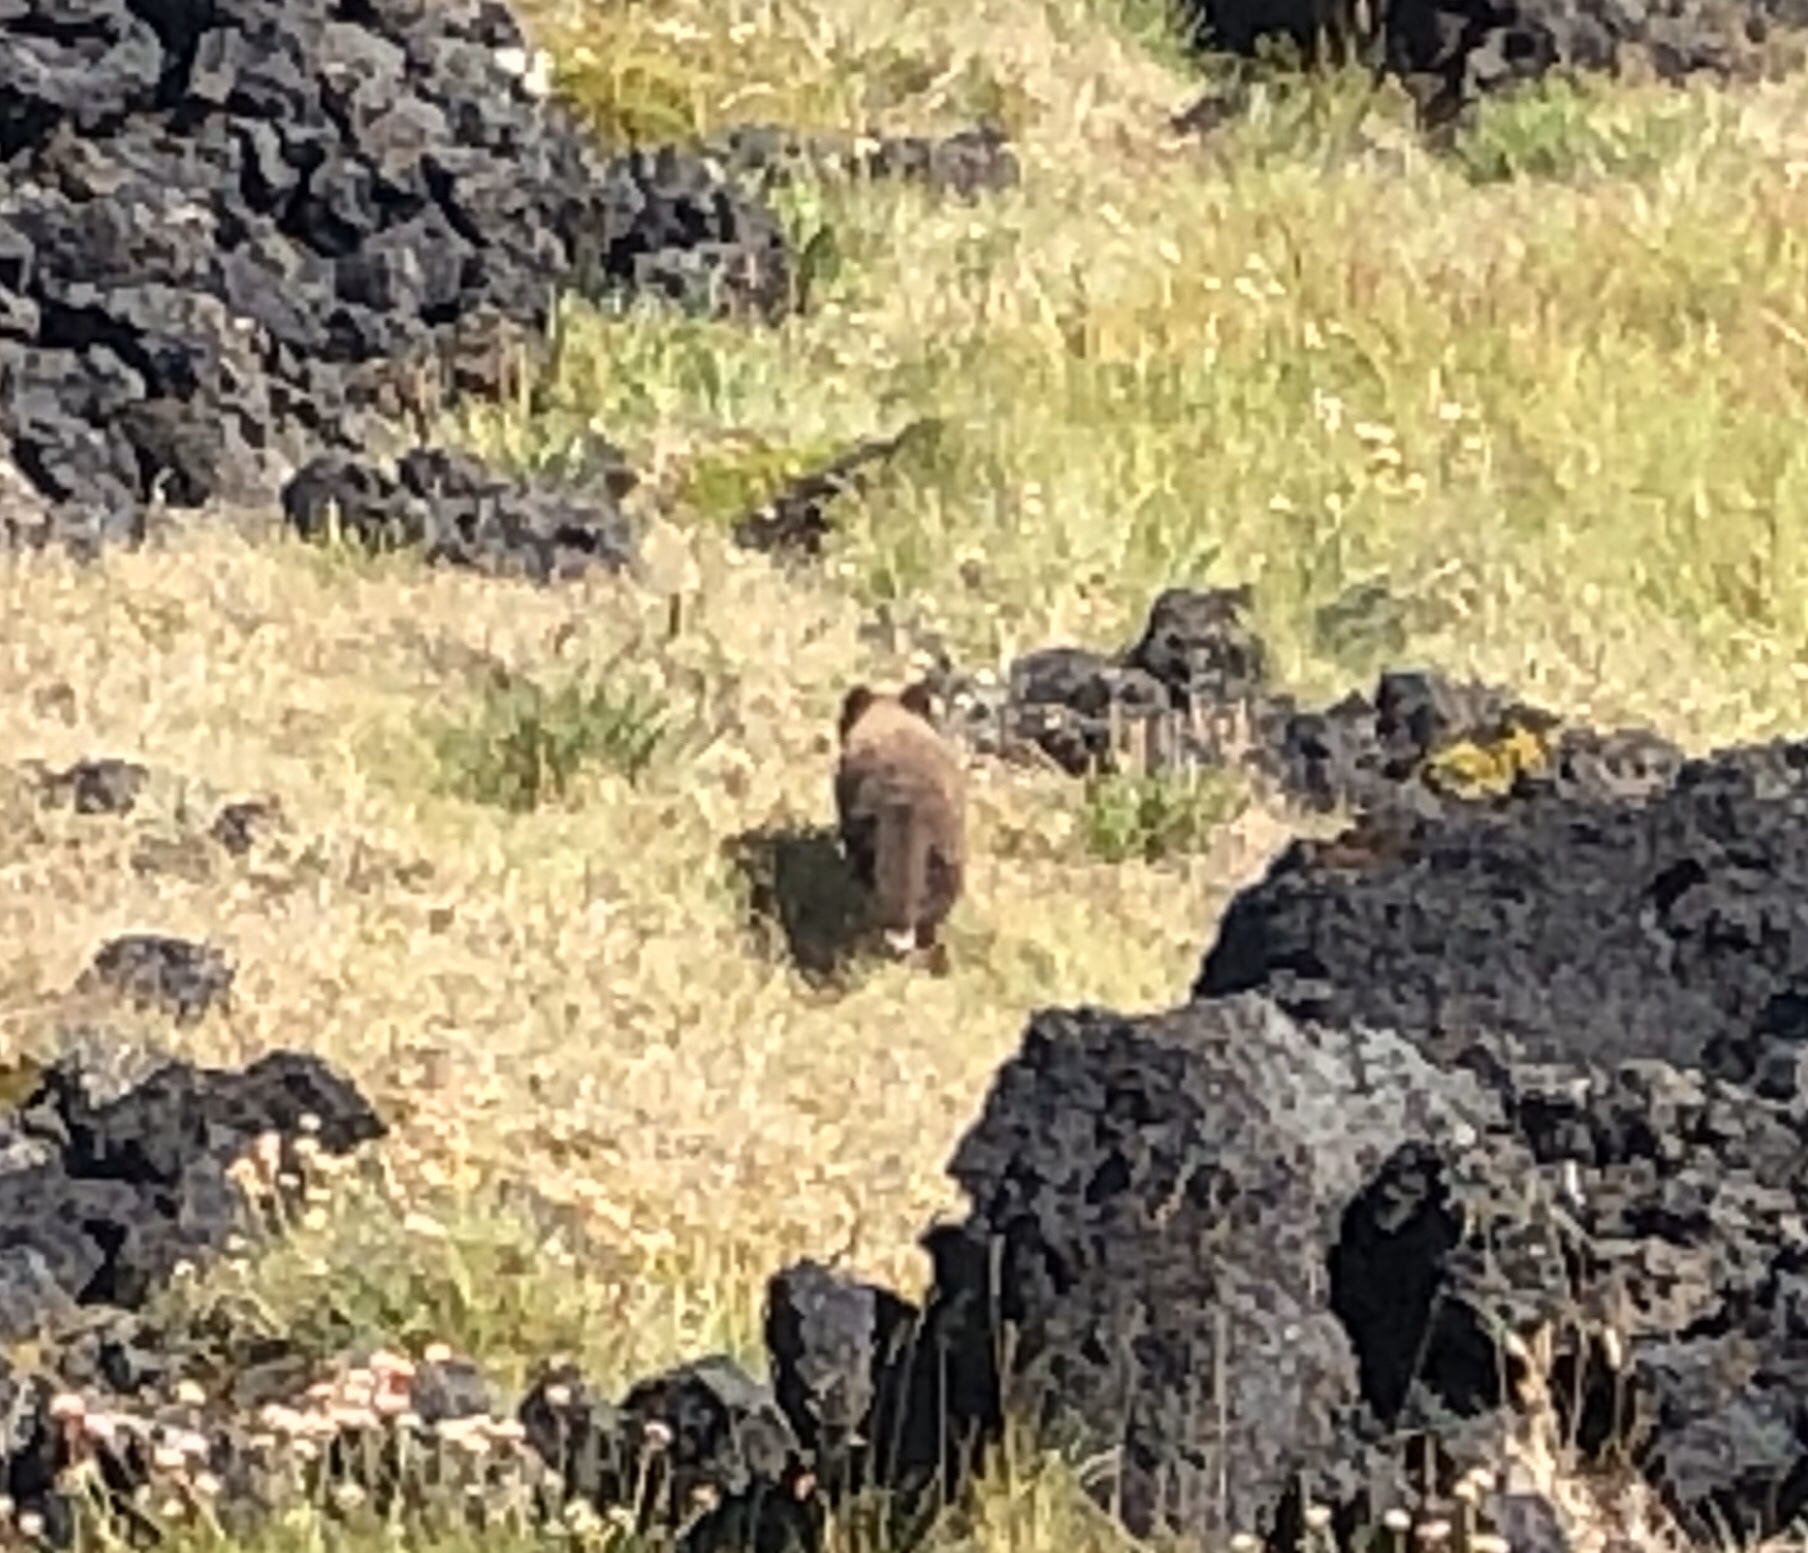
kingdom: Animalia
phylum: Chordata
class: Mammalia
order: Carnivora
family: Canidae
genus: Vulpes
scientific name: Vulpes lagopus
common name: Arctic fox
